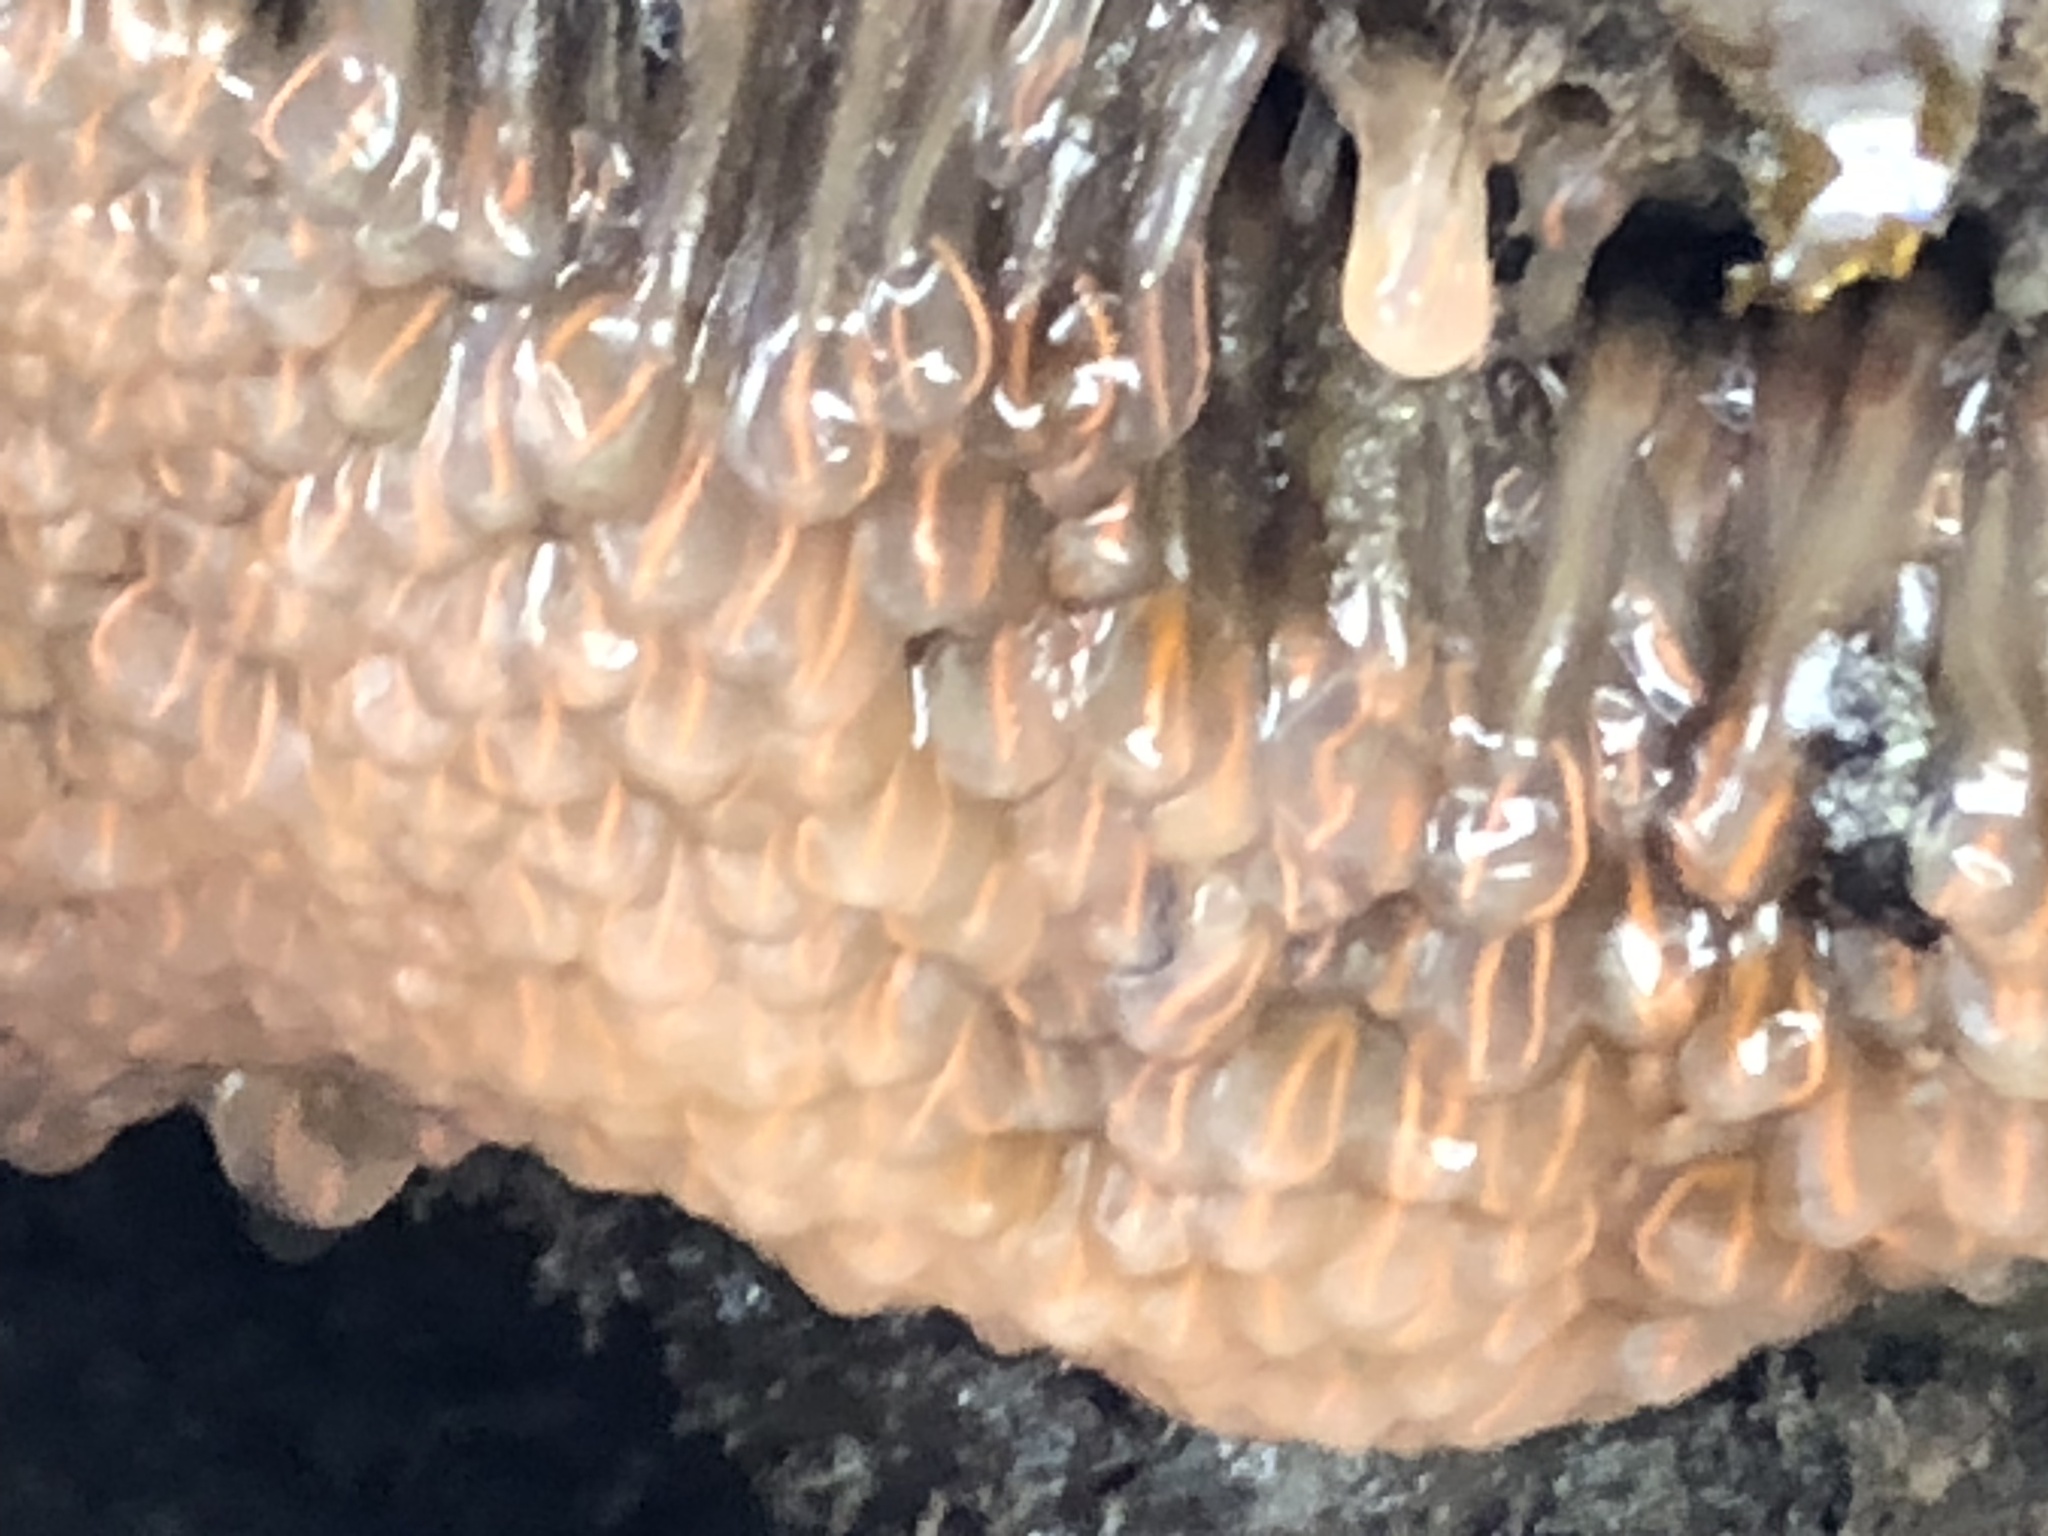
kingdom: Animalia
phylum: Chordata
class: Ascidiacea
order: Aplousobranchia
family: Clavelinidae
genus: Clavelina
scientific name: Clavelina huntsmani
